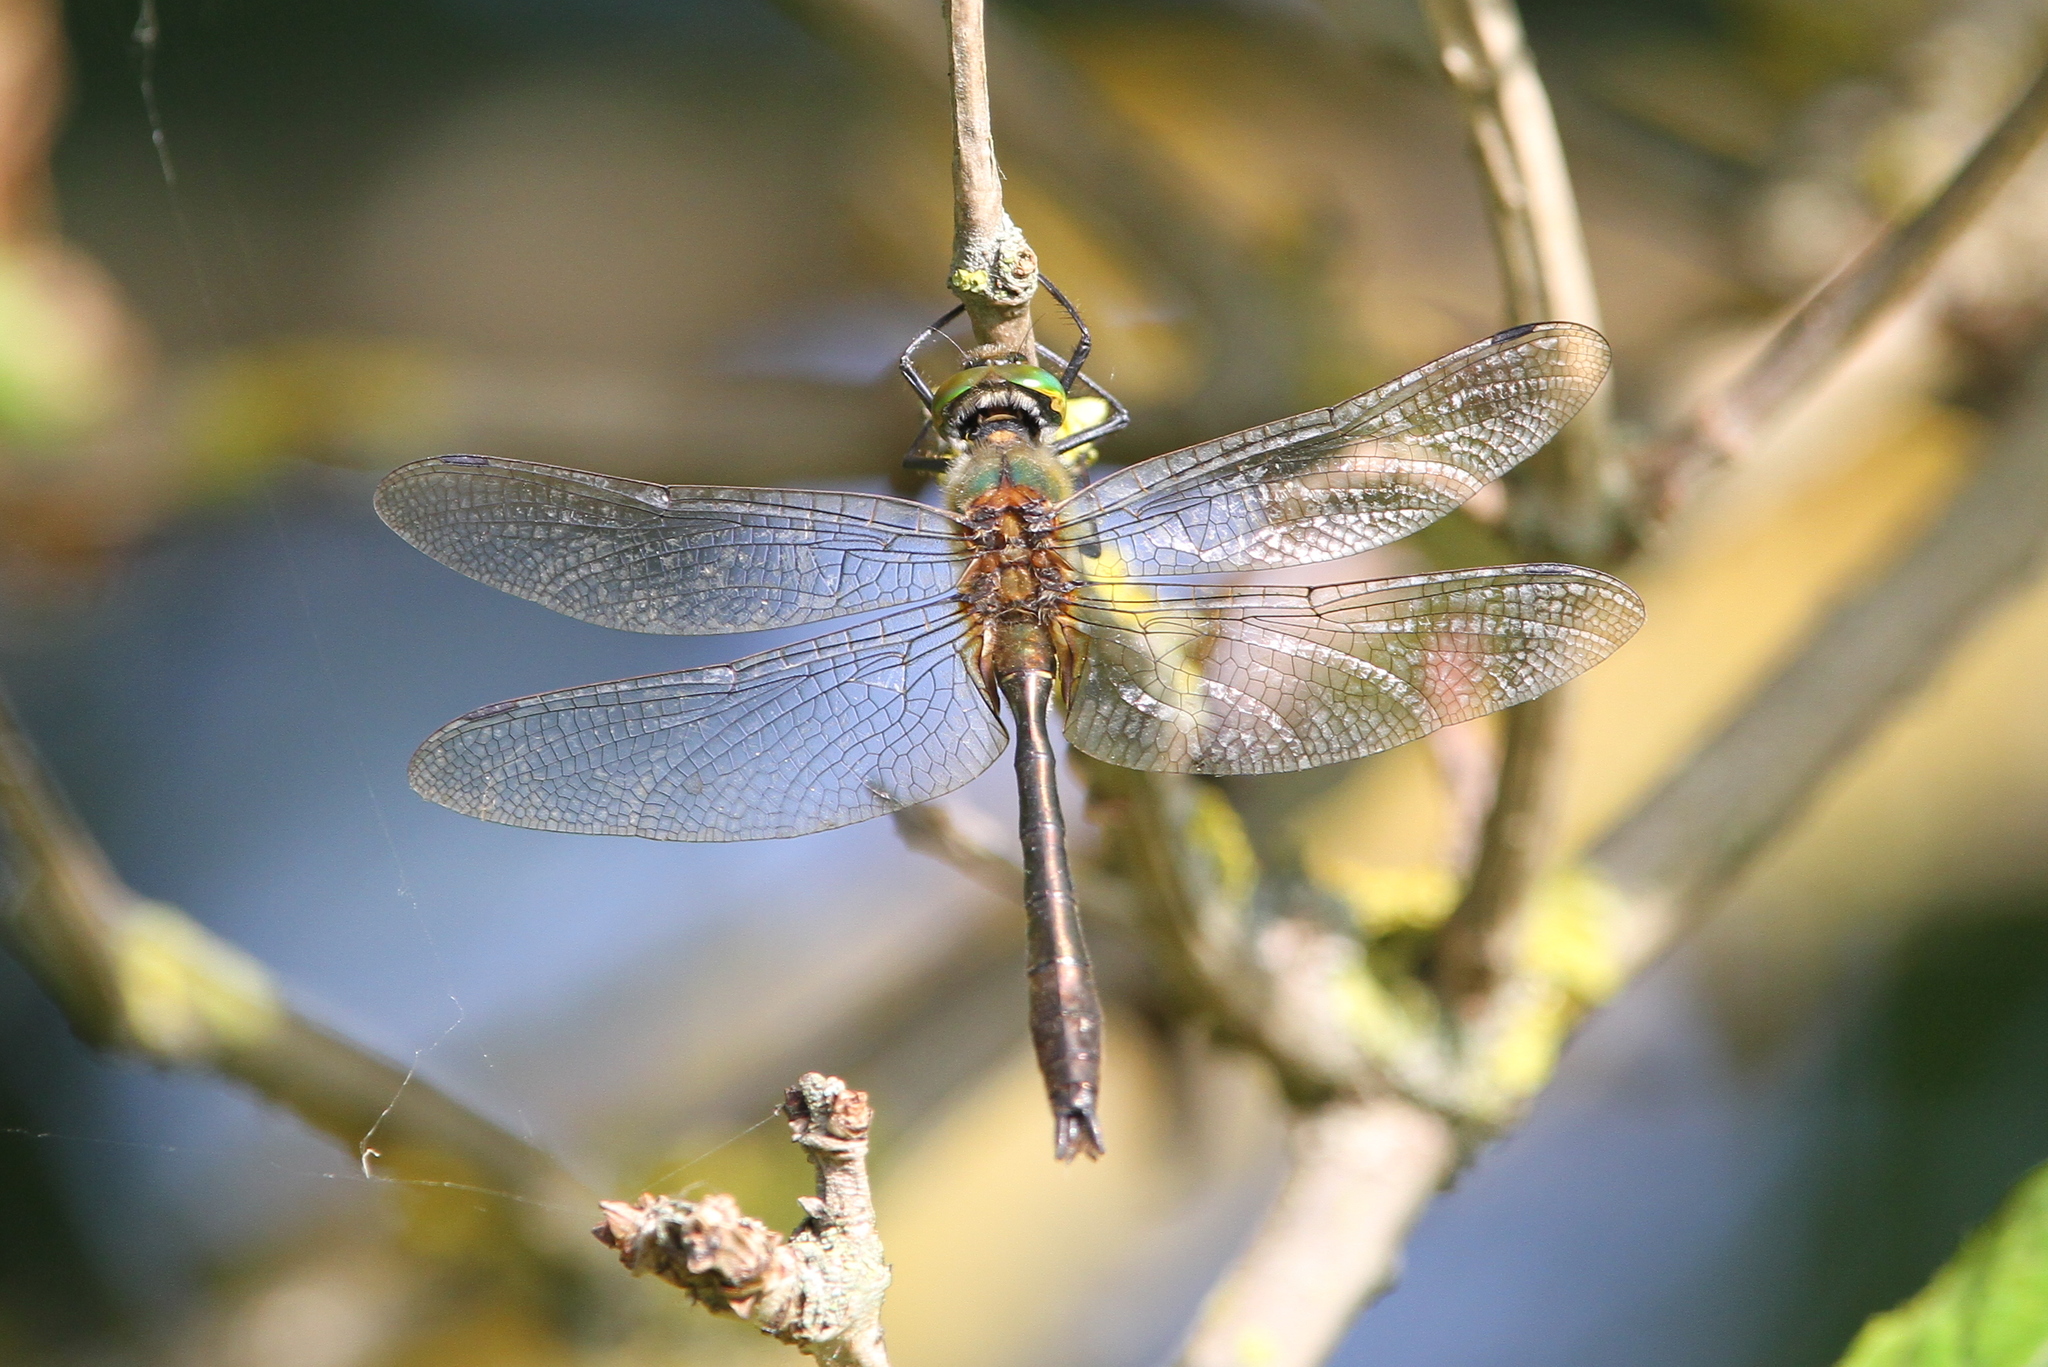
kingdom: Animalia
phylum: Arthropoda
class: Insecta
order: Odonata
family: Corduliidae
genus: Cordulia
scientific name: Cordulia aenea
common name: Downy emerald
